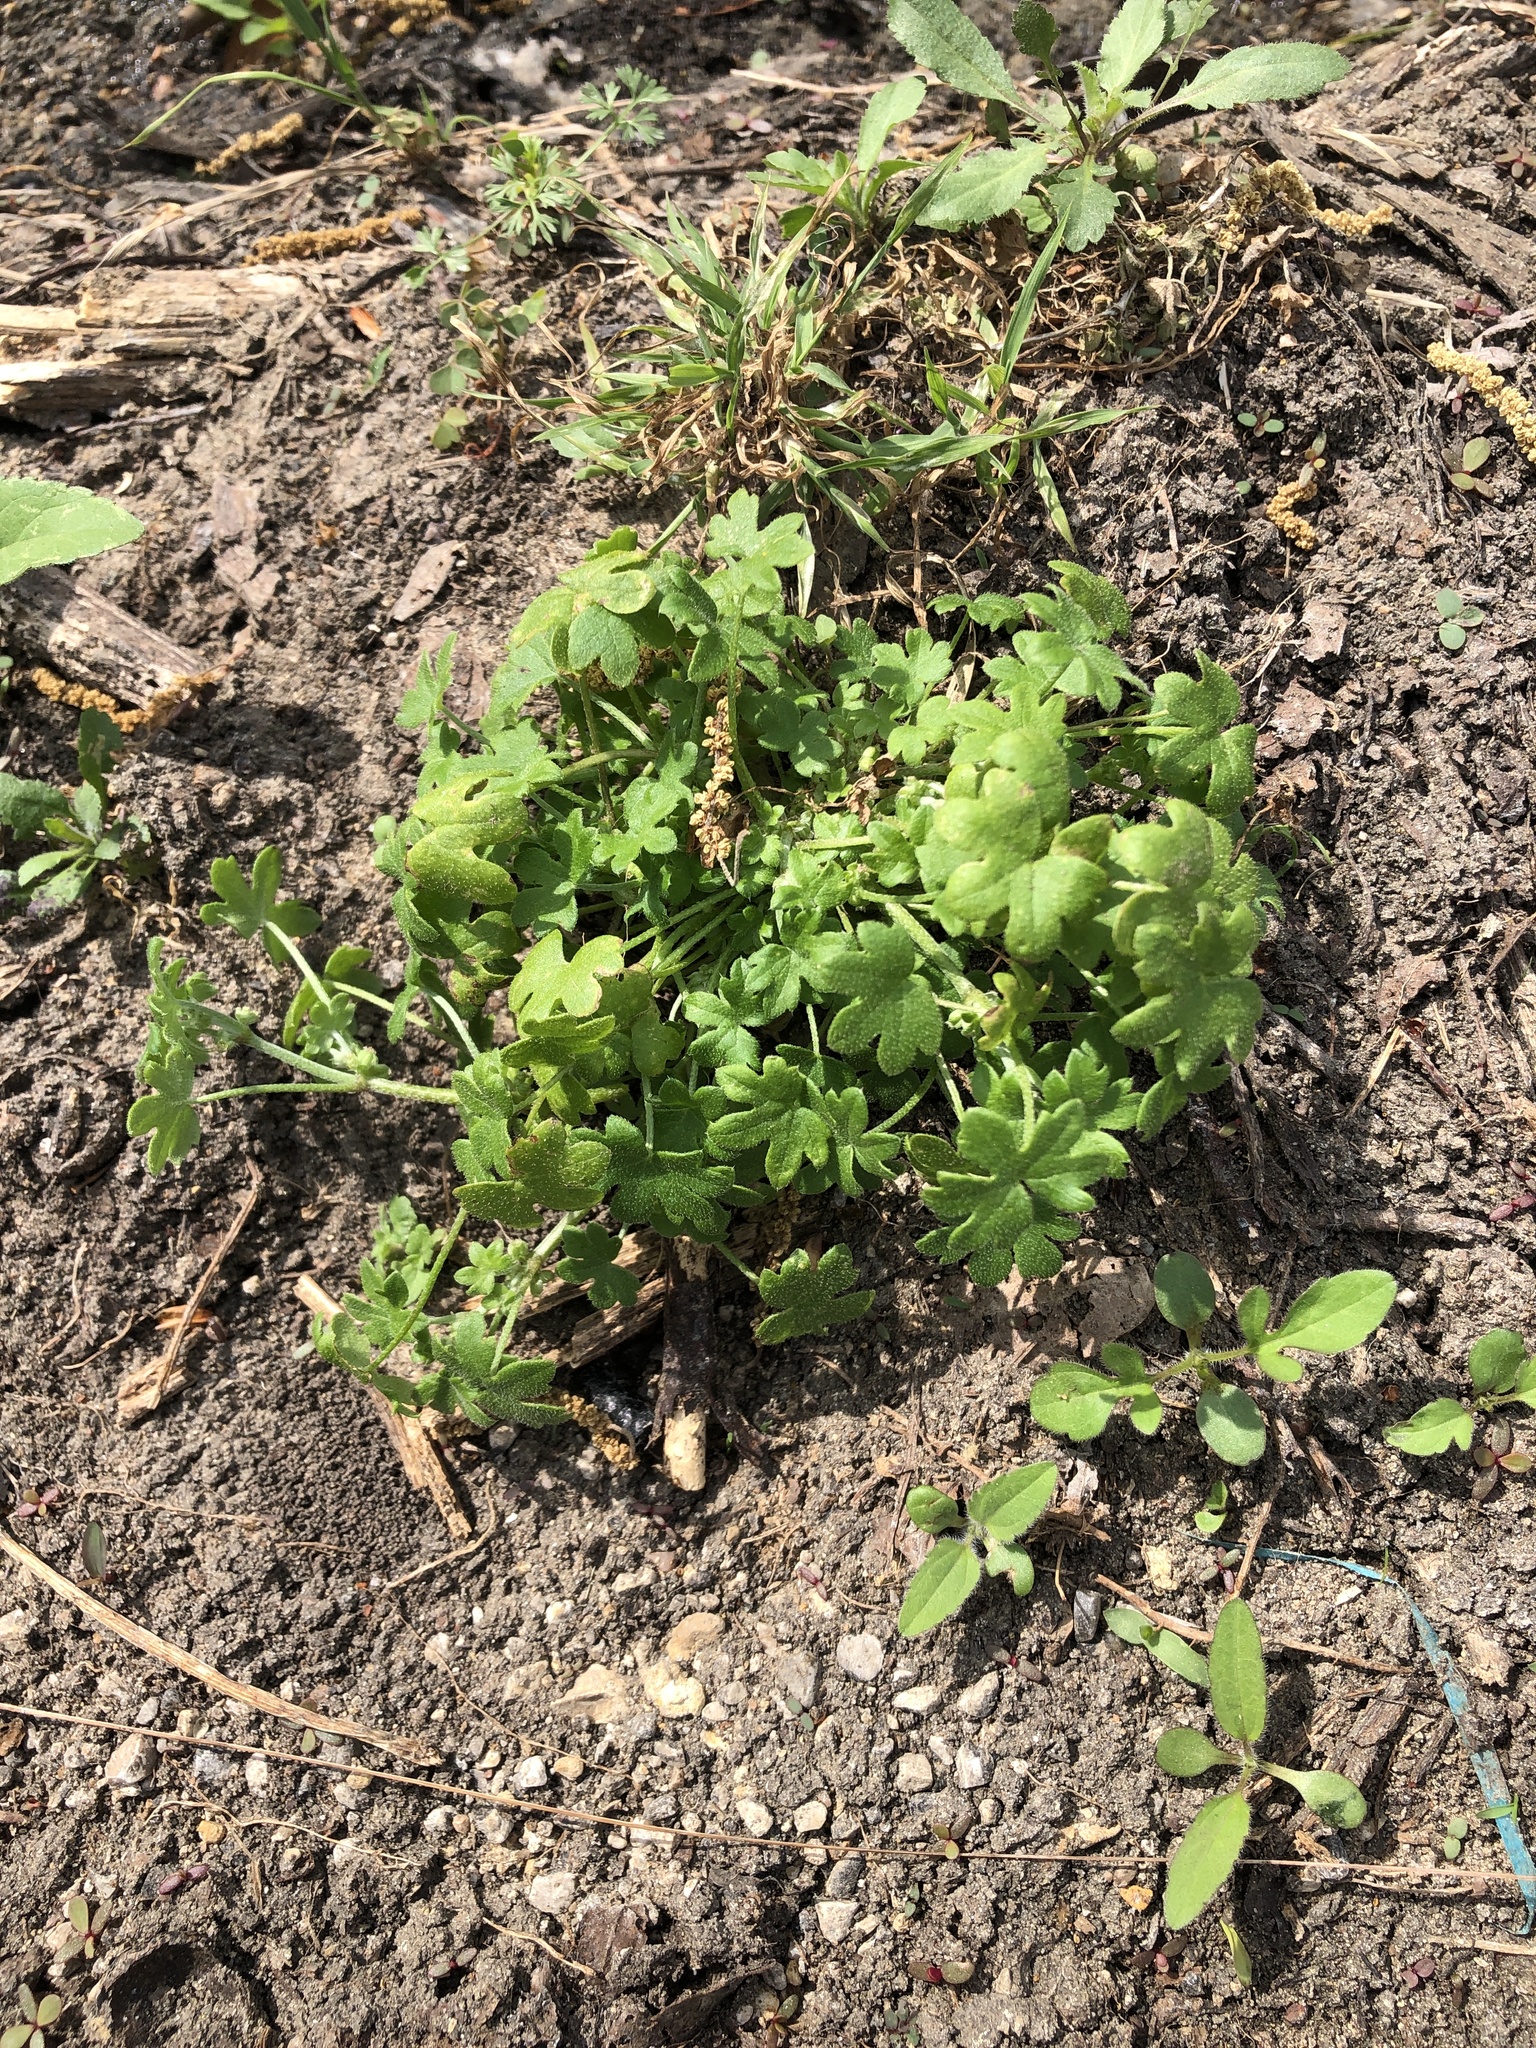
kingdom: Plantae
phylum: Tracheophyta
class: Magnoliopsida
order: Apiales
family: Apiaceae
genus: Bowlesia
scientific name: Bowlesia incana
